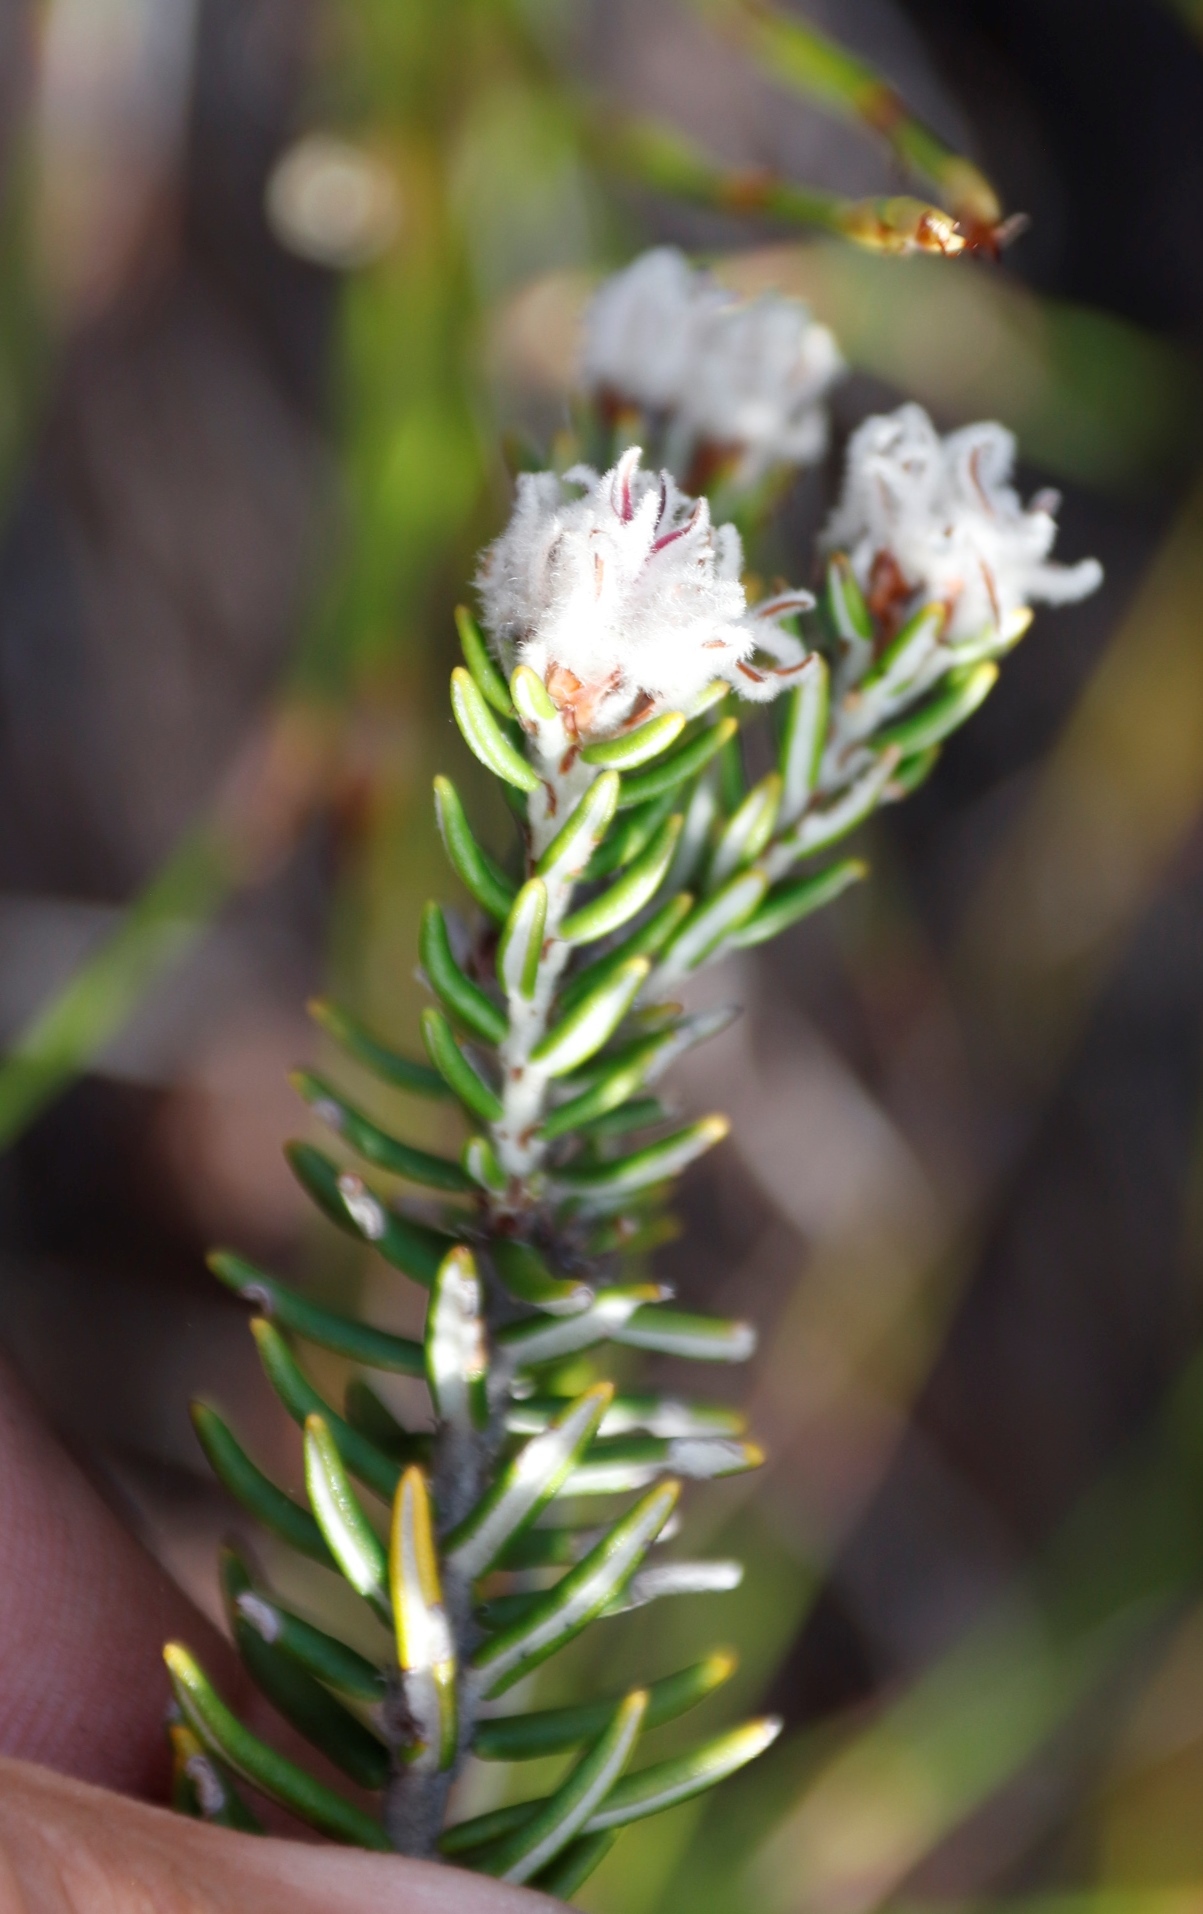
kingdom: Plantae
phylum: Tracheophyta
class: Magnoliopsida
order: Rosales
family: Rhamnaceae
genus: Trichocephalus
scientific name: Trichocephalus stipularis
